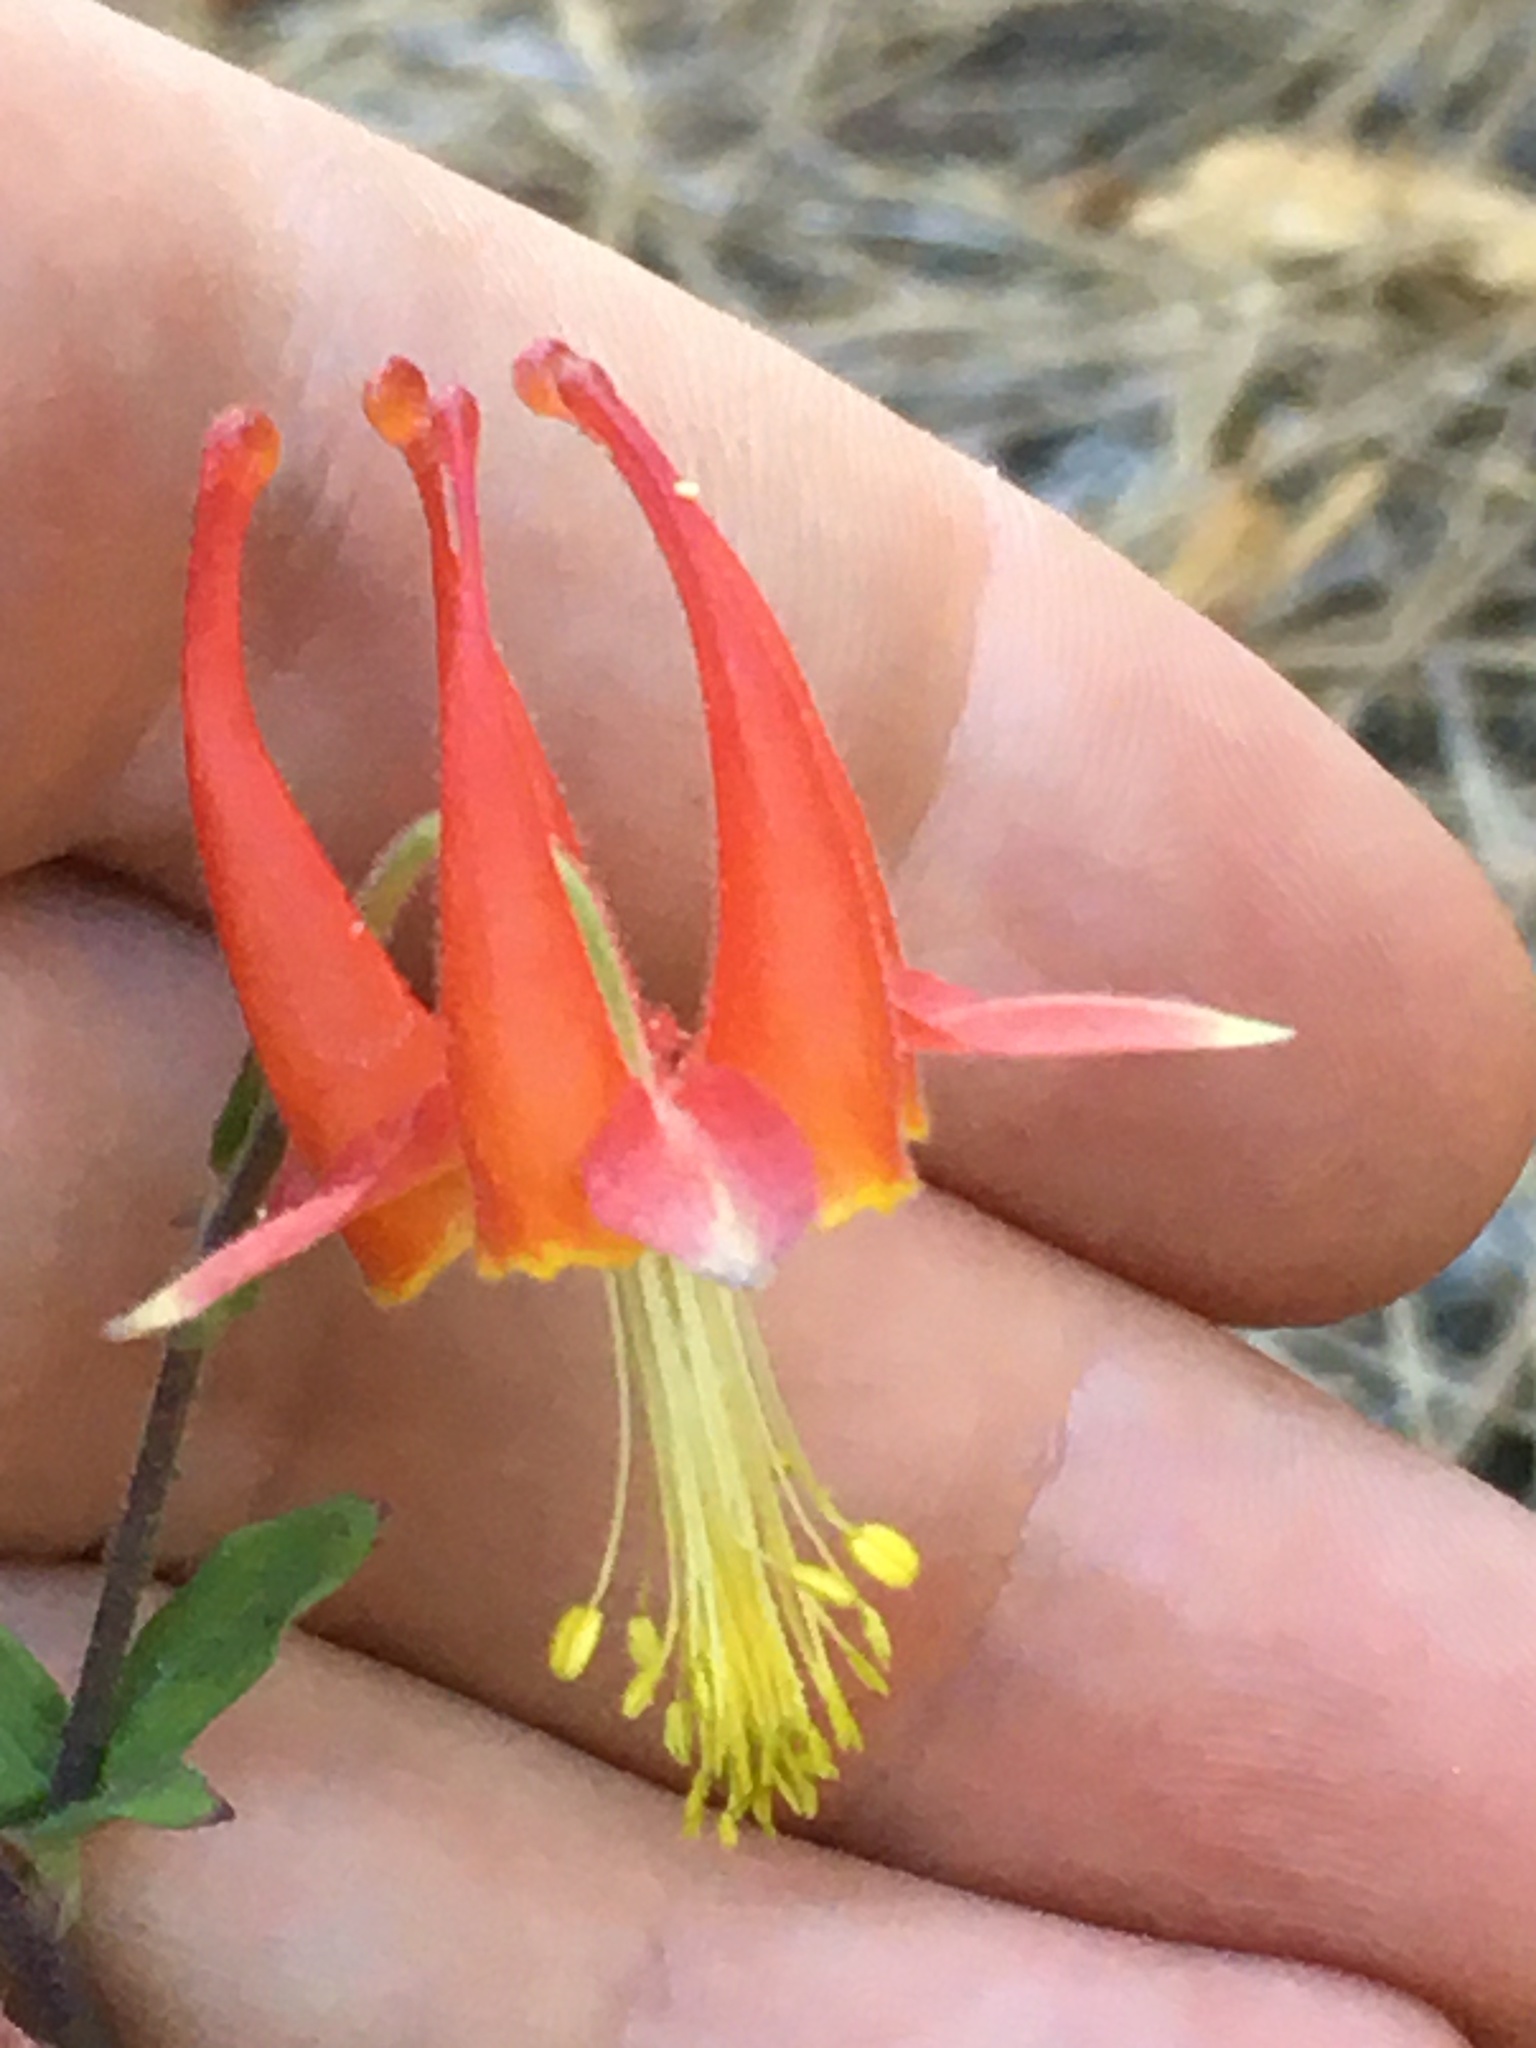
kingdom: Plantae
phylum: Tracheophyta
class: Magnoliopsida
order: Ranunculales
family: Ranunculaceae
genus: Aquilegia
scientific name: Aquilegia formosa
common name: Sitka columbine
